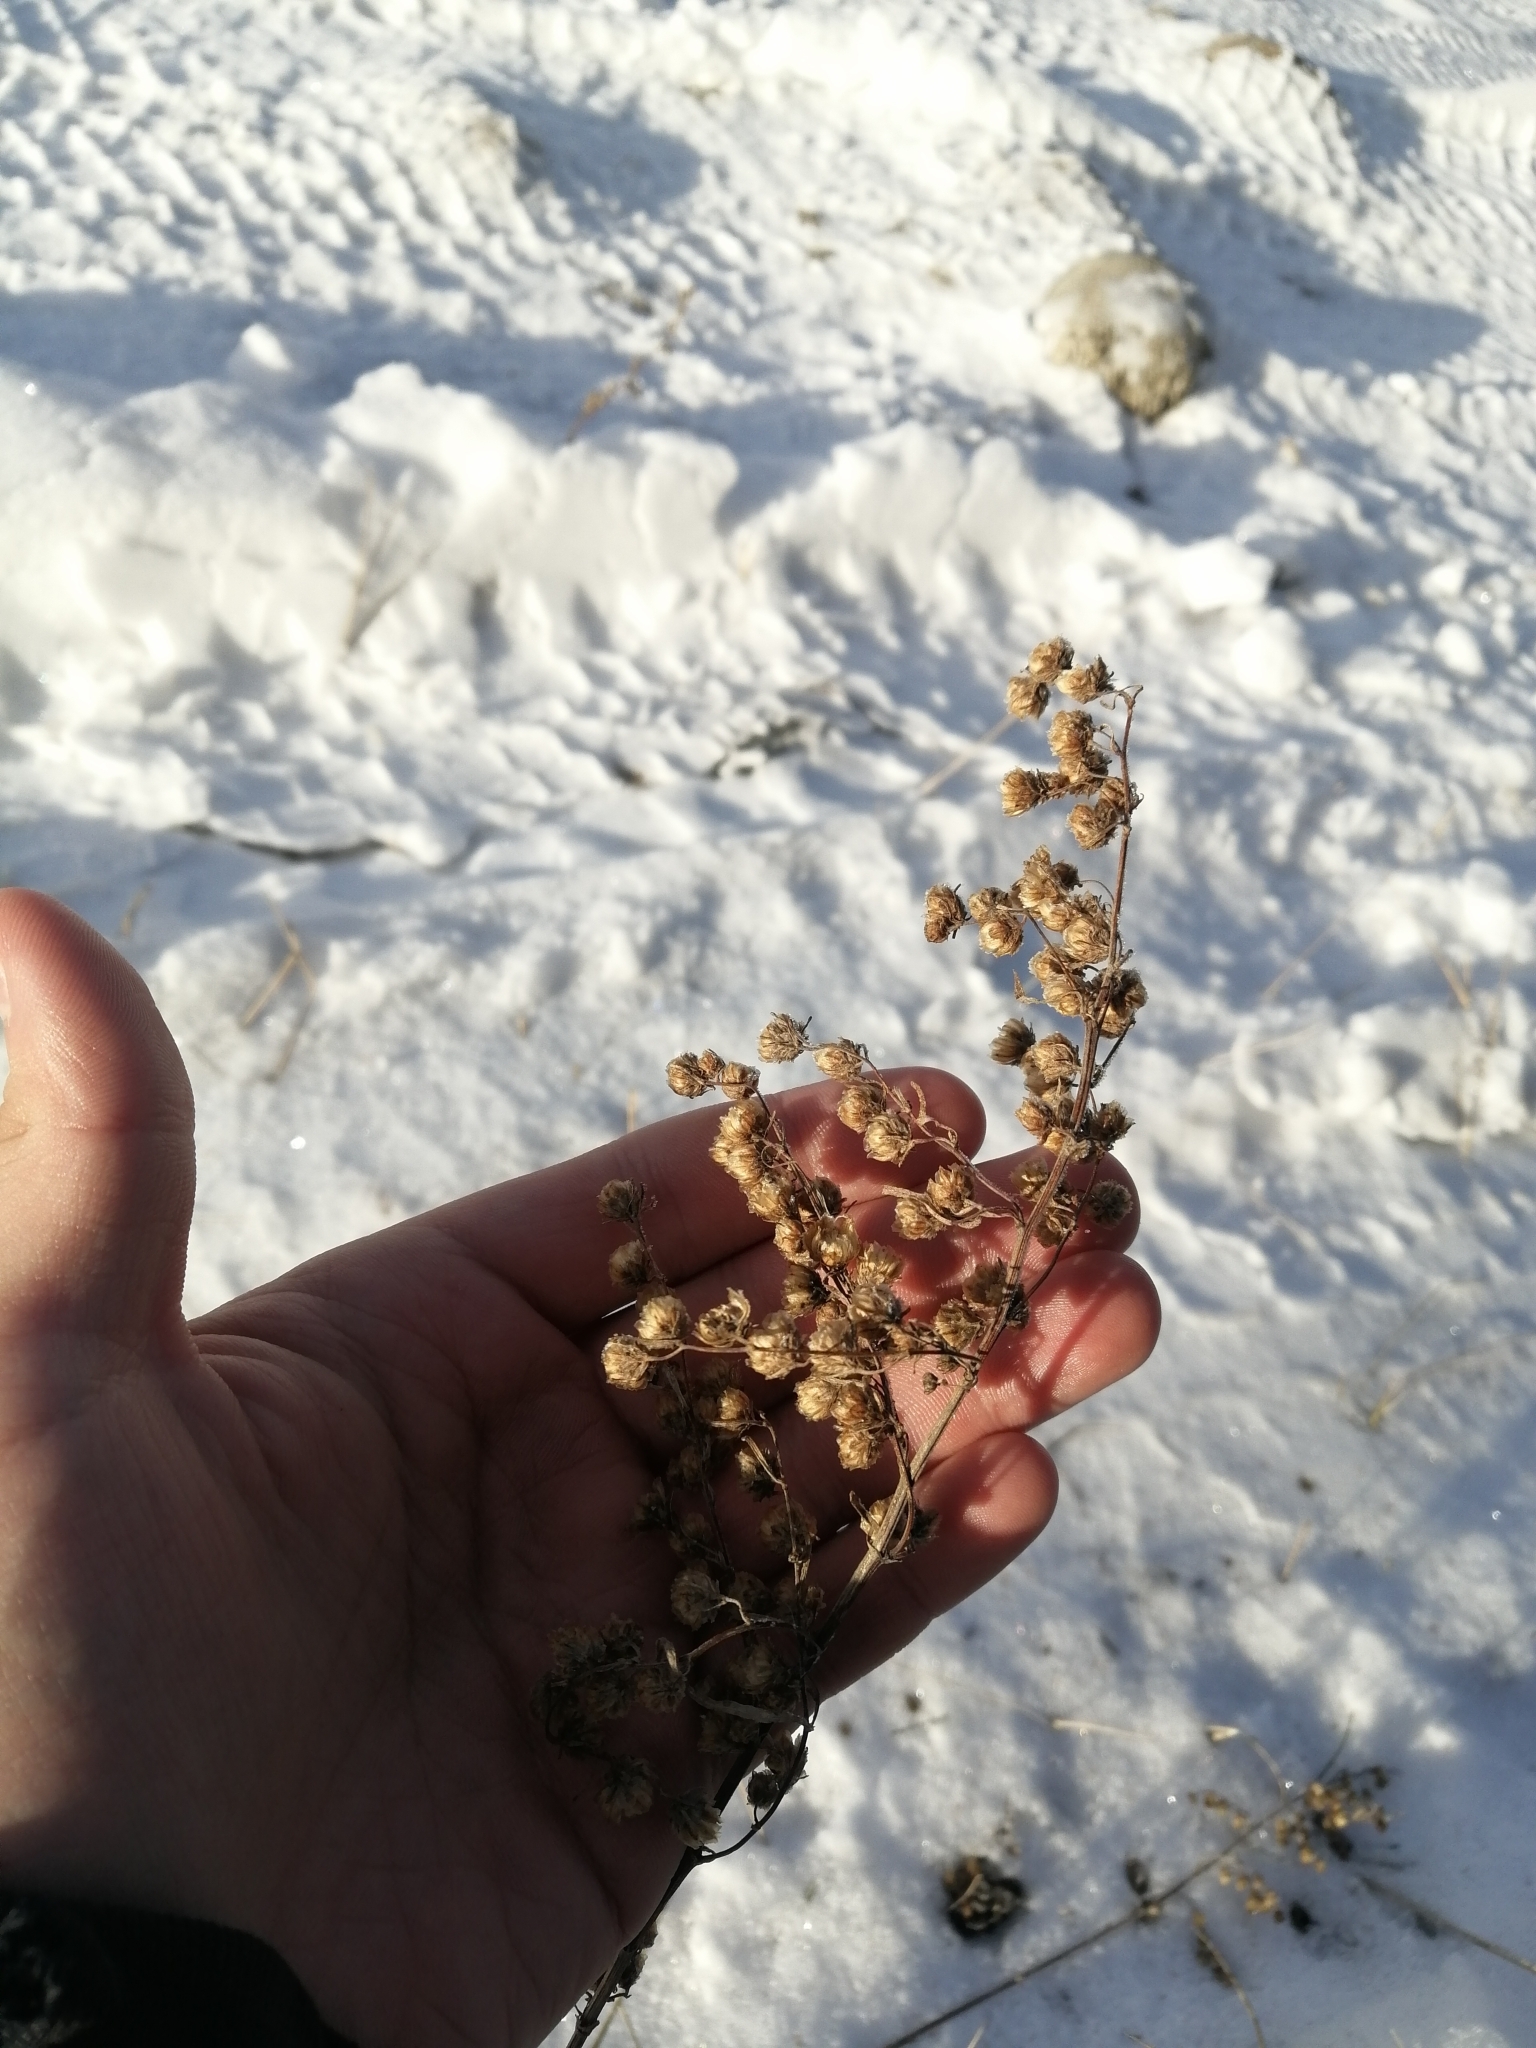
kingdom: Plantae
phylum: Tracheophyta
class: Magnoliopsida
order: Asterales
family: Asteraceae
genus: Artemisia
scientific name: Artemisia sieversiana
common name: Sieversian wormwood
